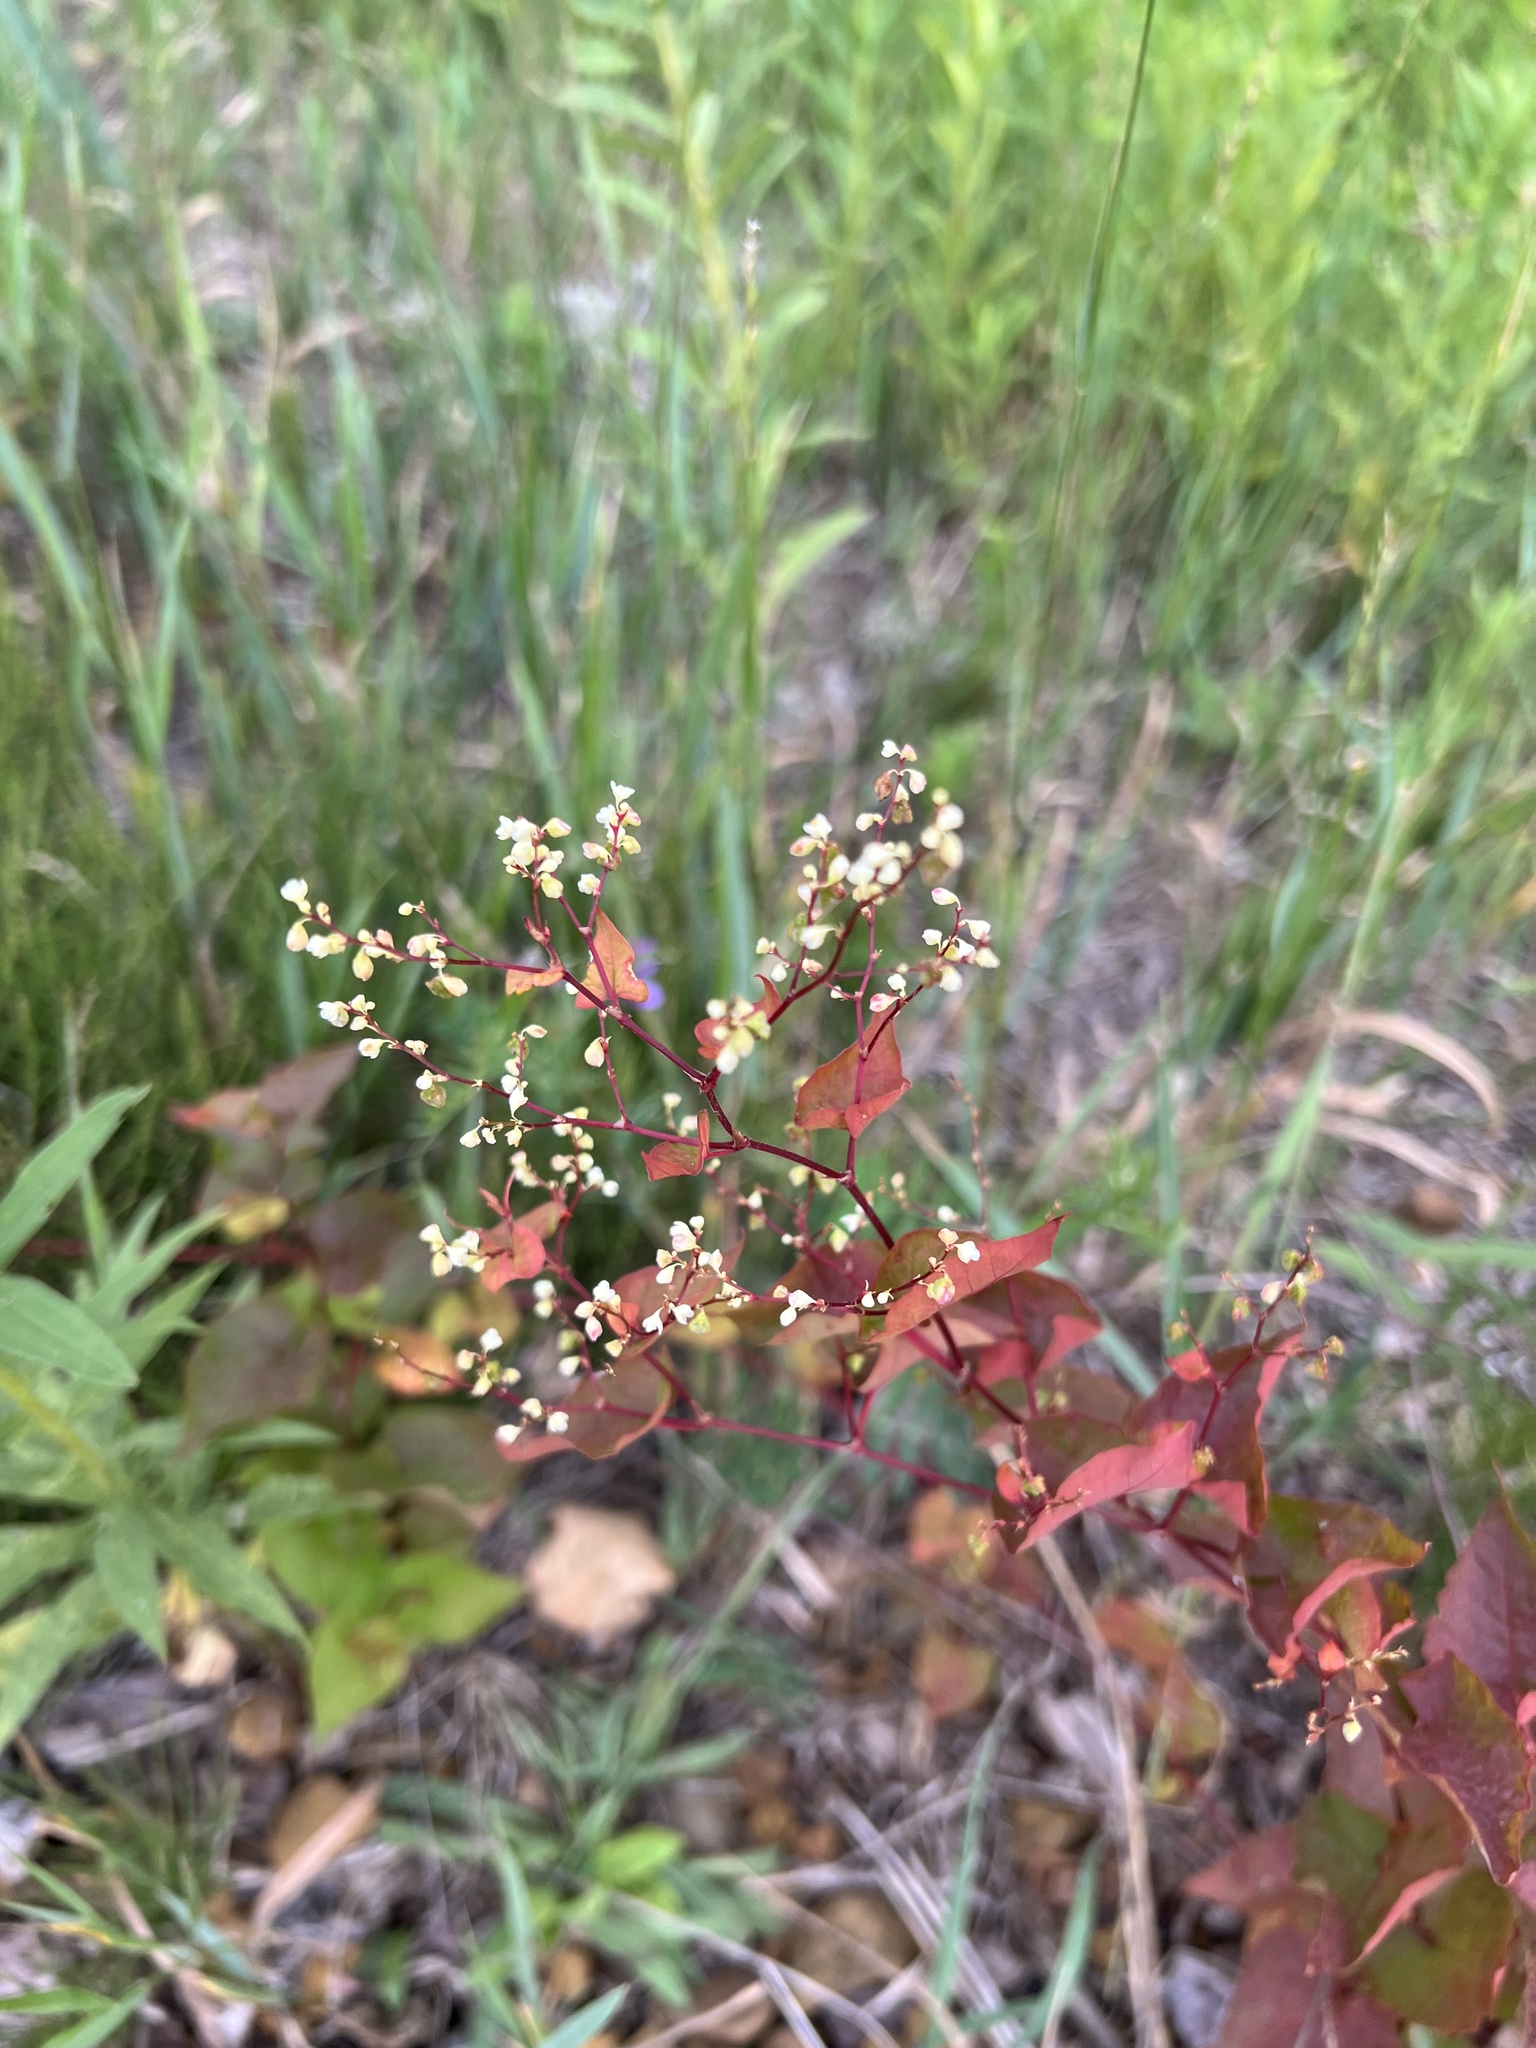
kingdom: Plantae
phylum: Tracheophyta
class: Magnoliopsida
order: Caryophyllales
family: Polygonaceae
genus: Parogonum
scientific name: Parogonum ciliinode
